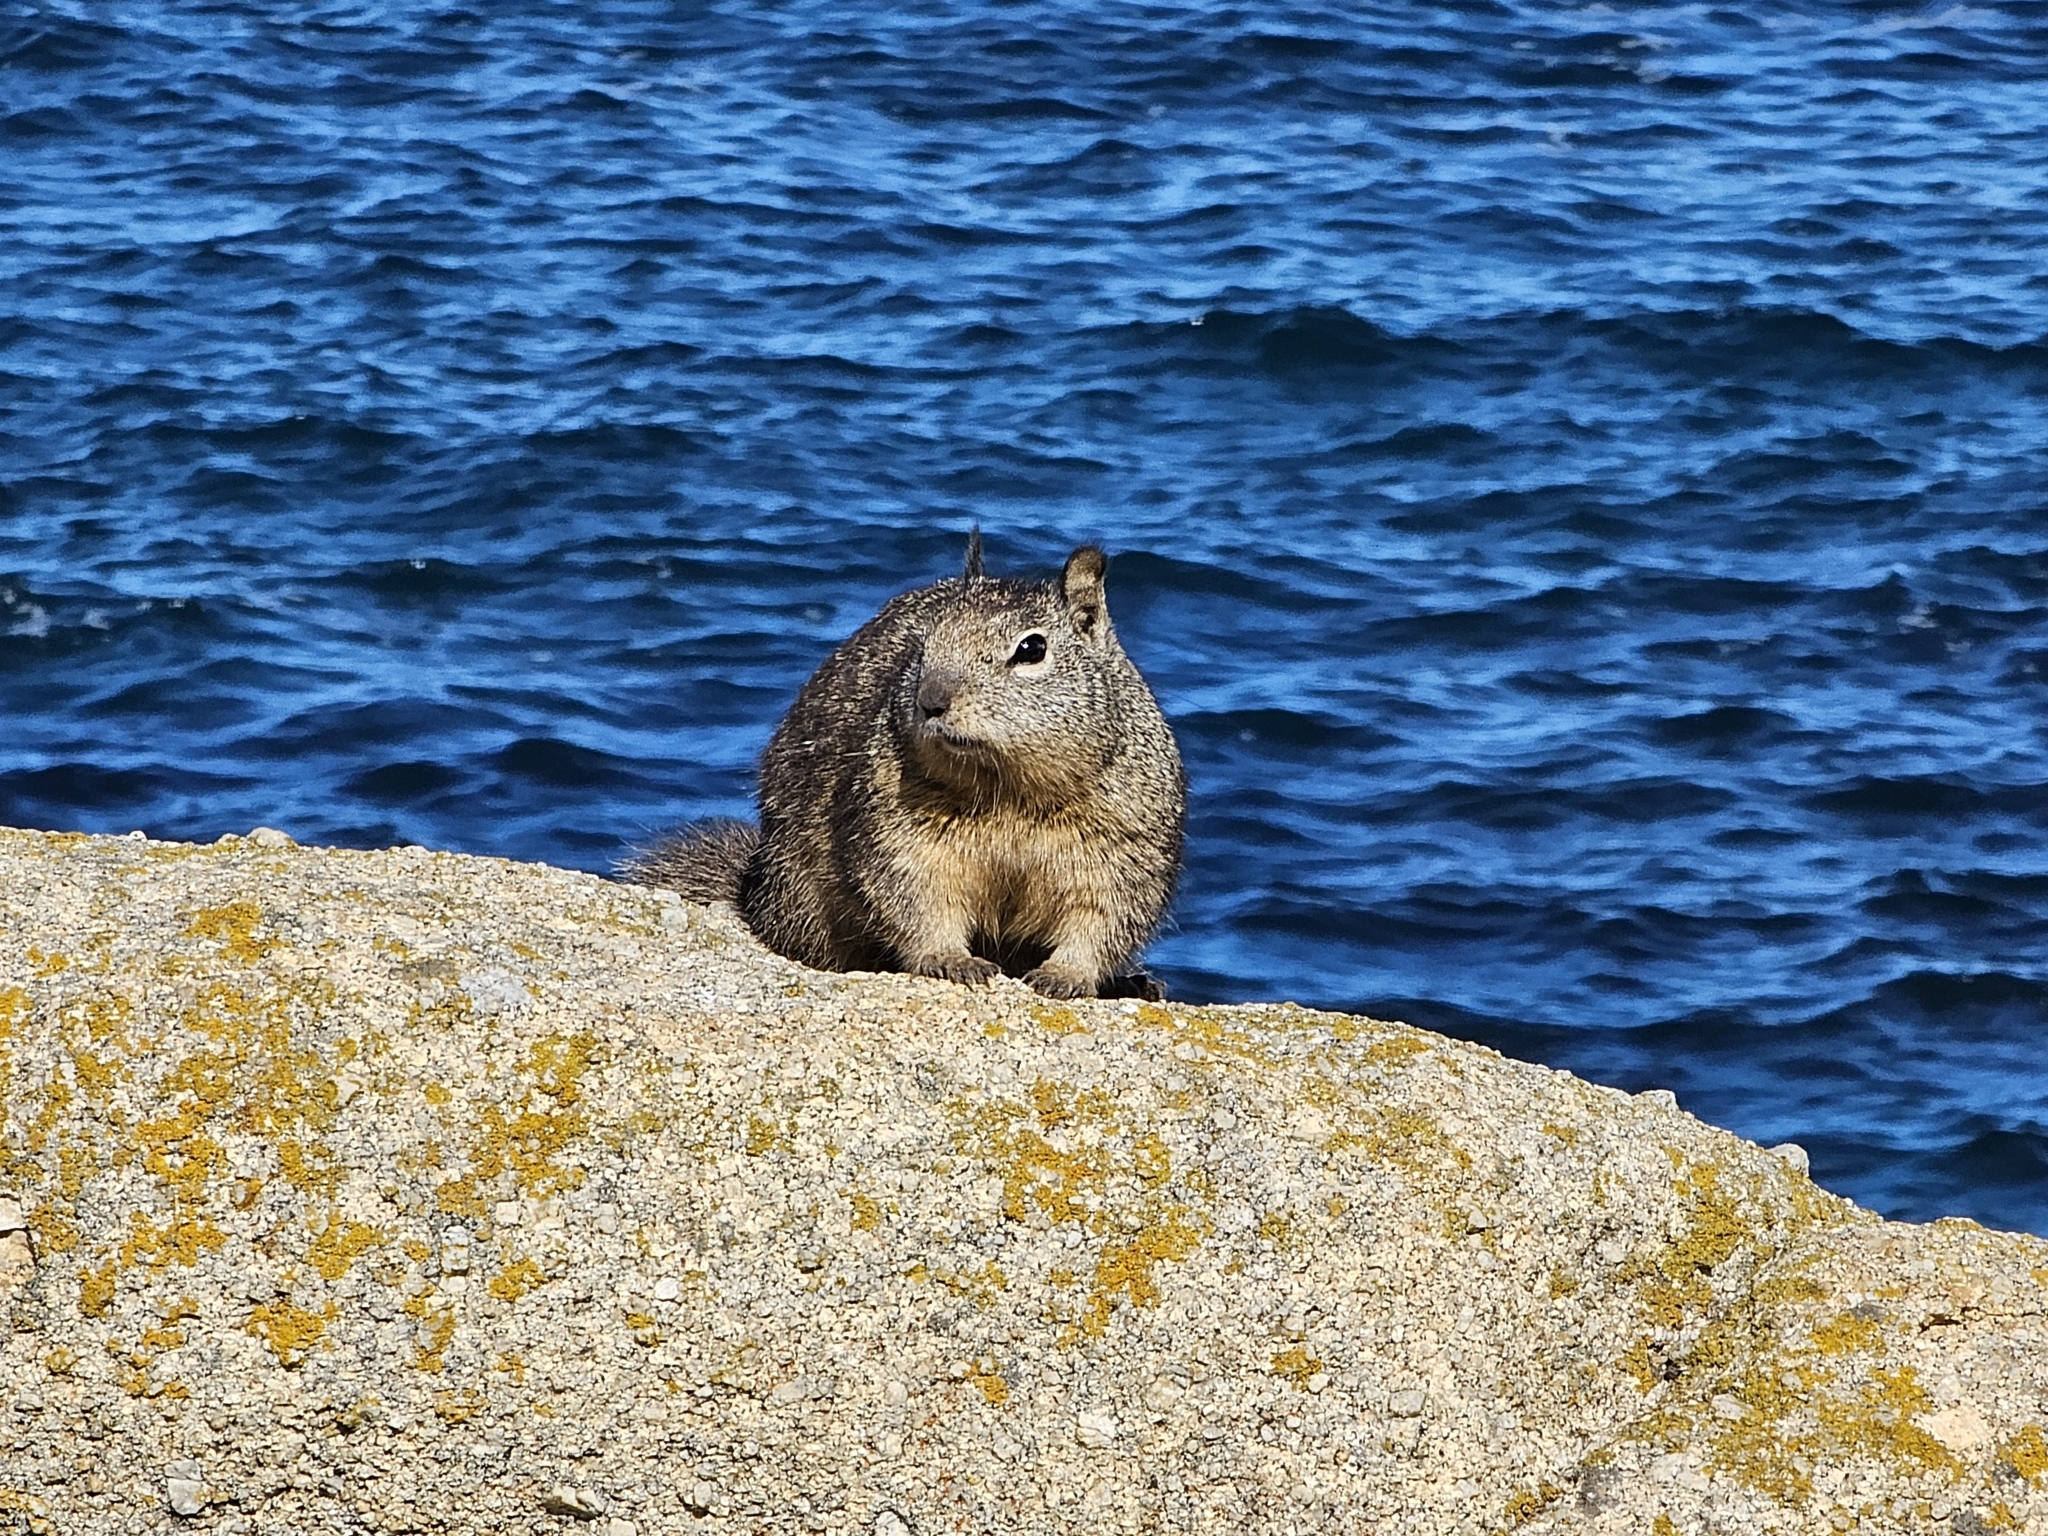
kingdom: Animalia
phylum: Chordata
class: Mammalia
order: Rodentia
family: Sciuridae
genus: Otospermophilus
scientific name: Otospermophilus beecheyi
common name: California ground squirrel
